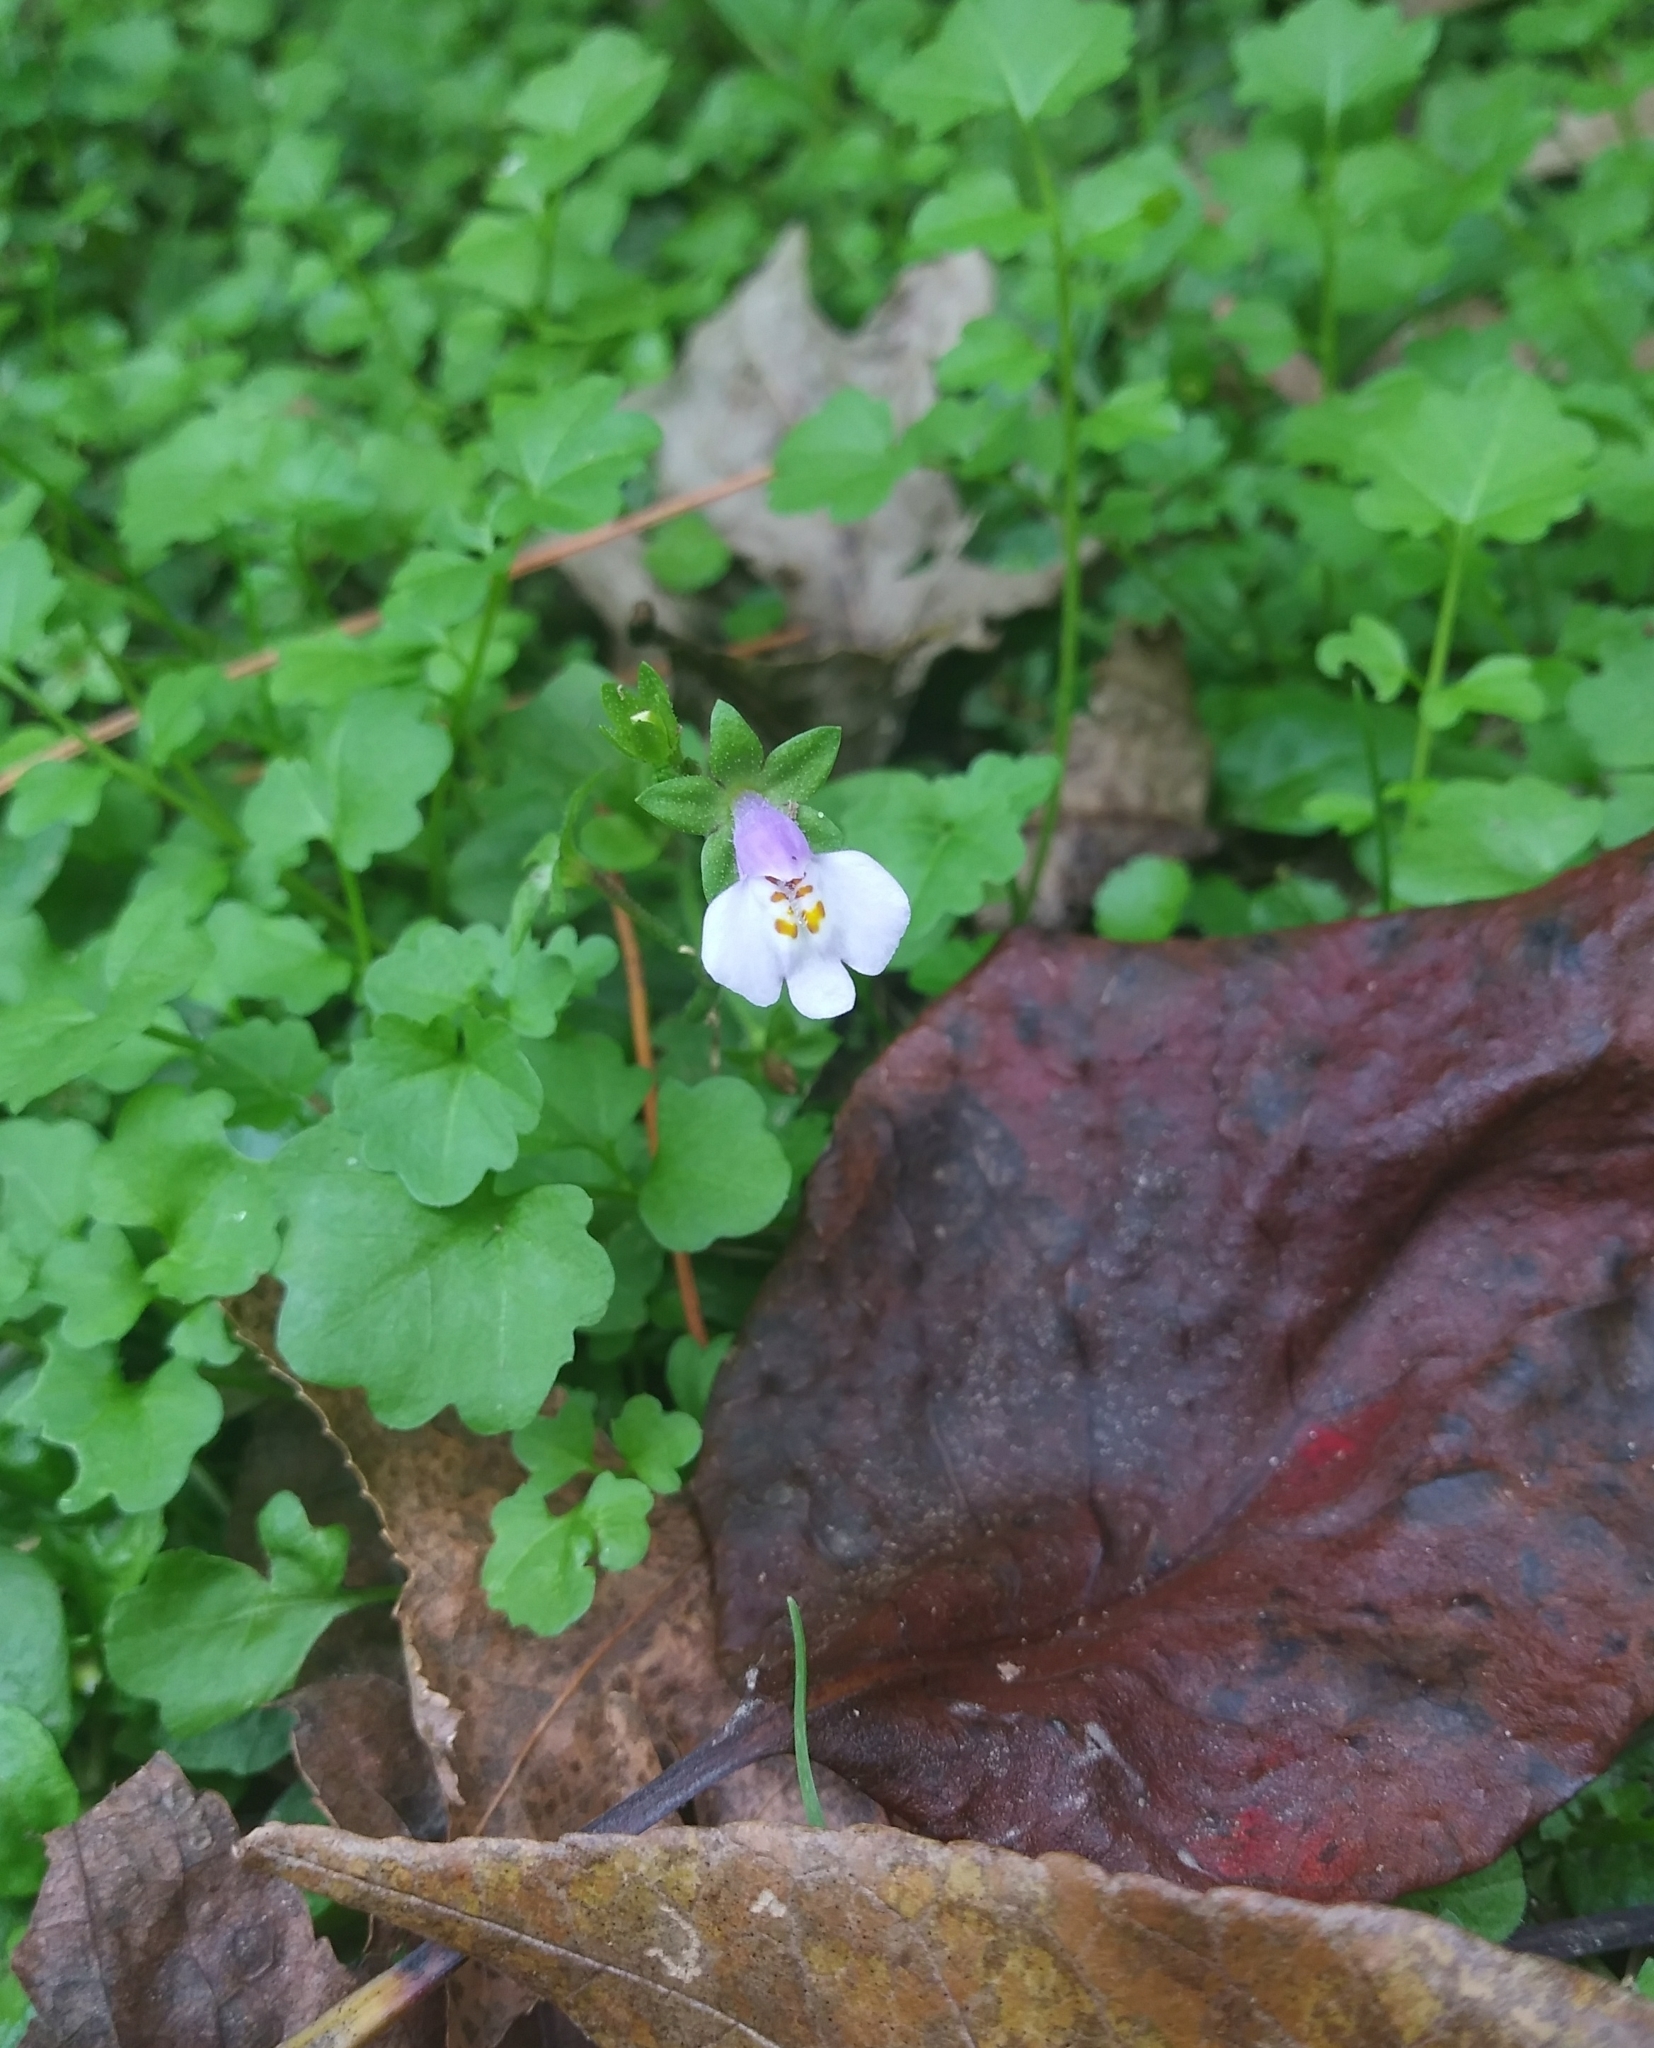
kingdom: Plantae
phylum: Tracheophyta
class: Magnoliopsida
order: Lamiales
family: Mazaceae
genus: Mazus
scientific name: Mazus pumilus
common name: Japanese mazus
